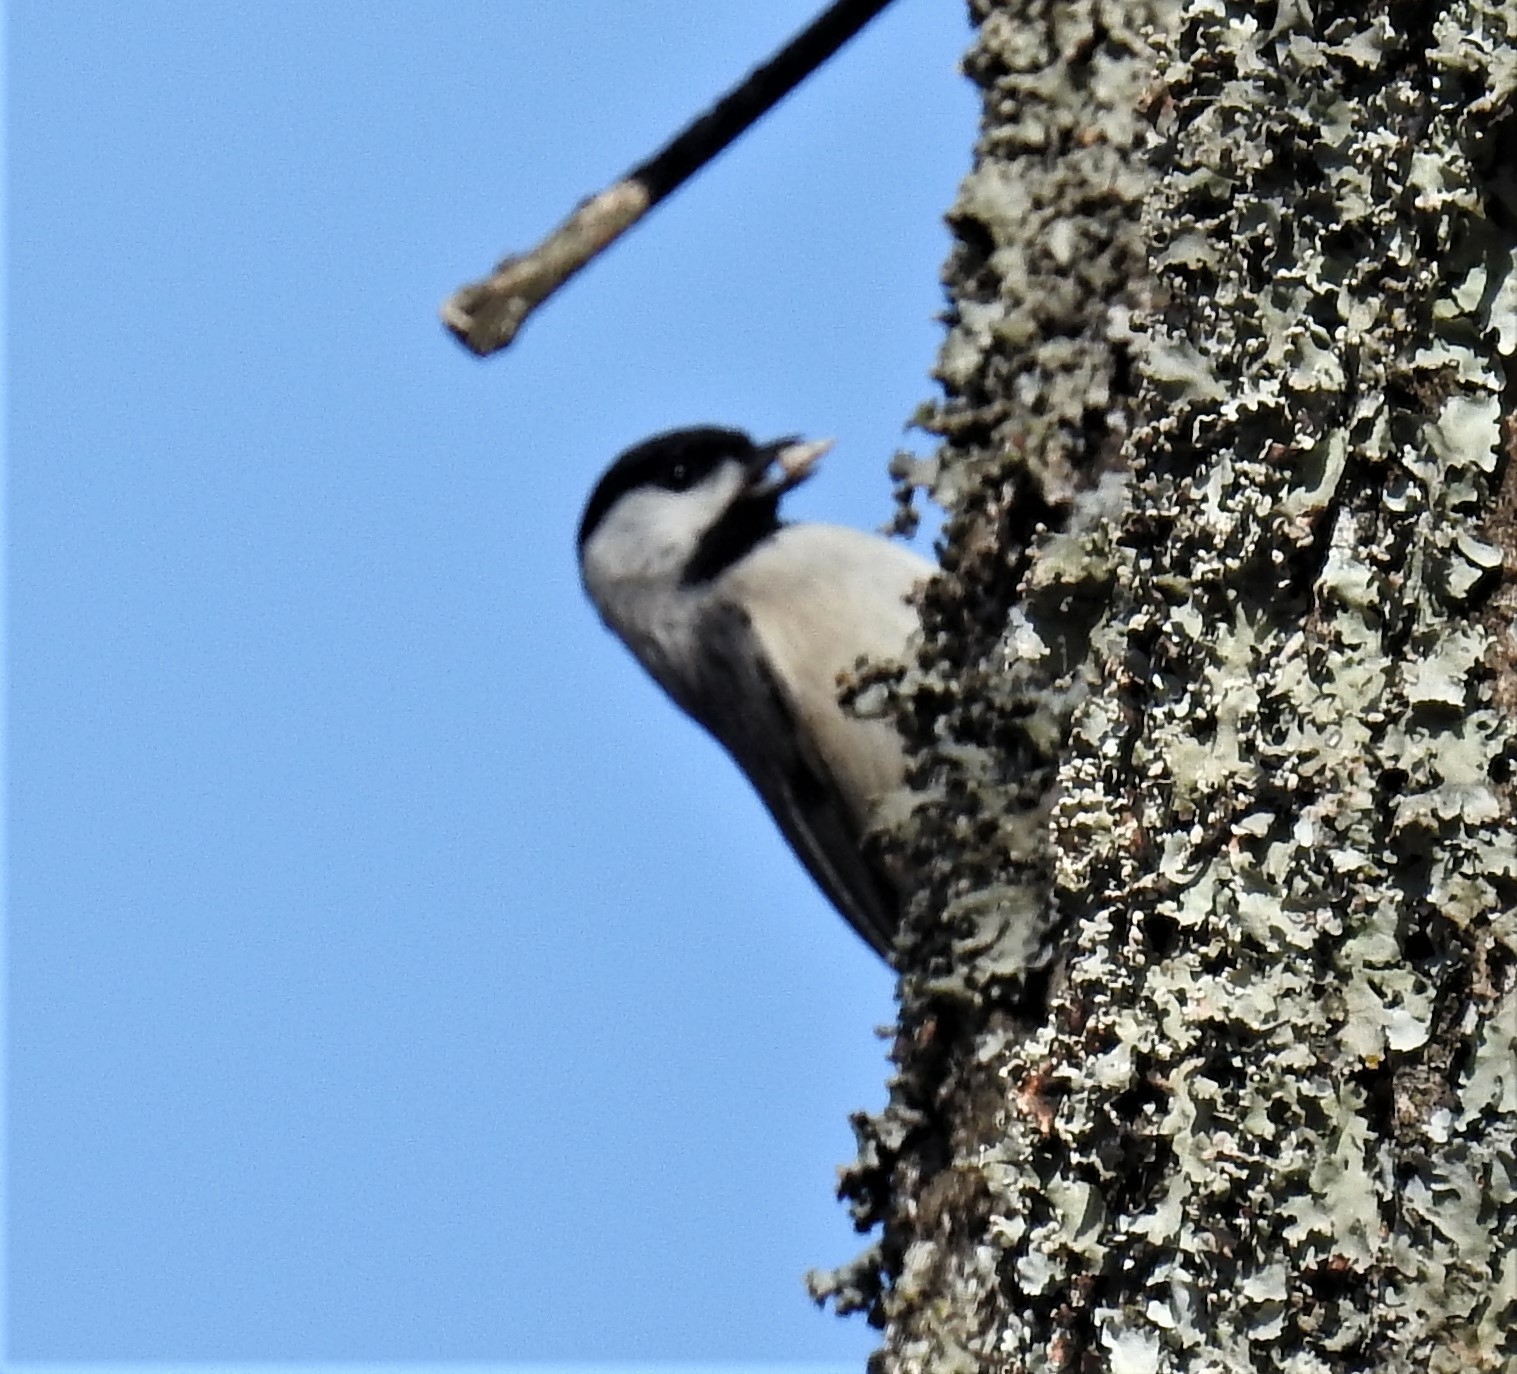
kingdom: Animalia
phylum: Chordata
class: Aves
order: Passeriformes
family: Paridae
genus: Poecile
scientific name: Poecile carolinensis
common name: Carolina chickadee
